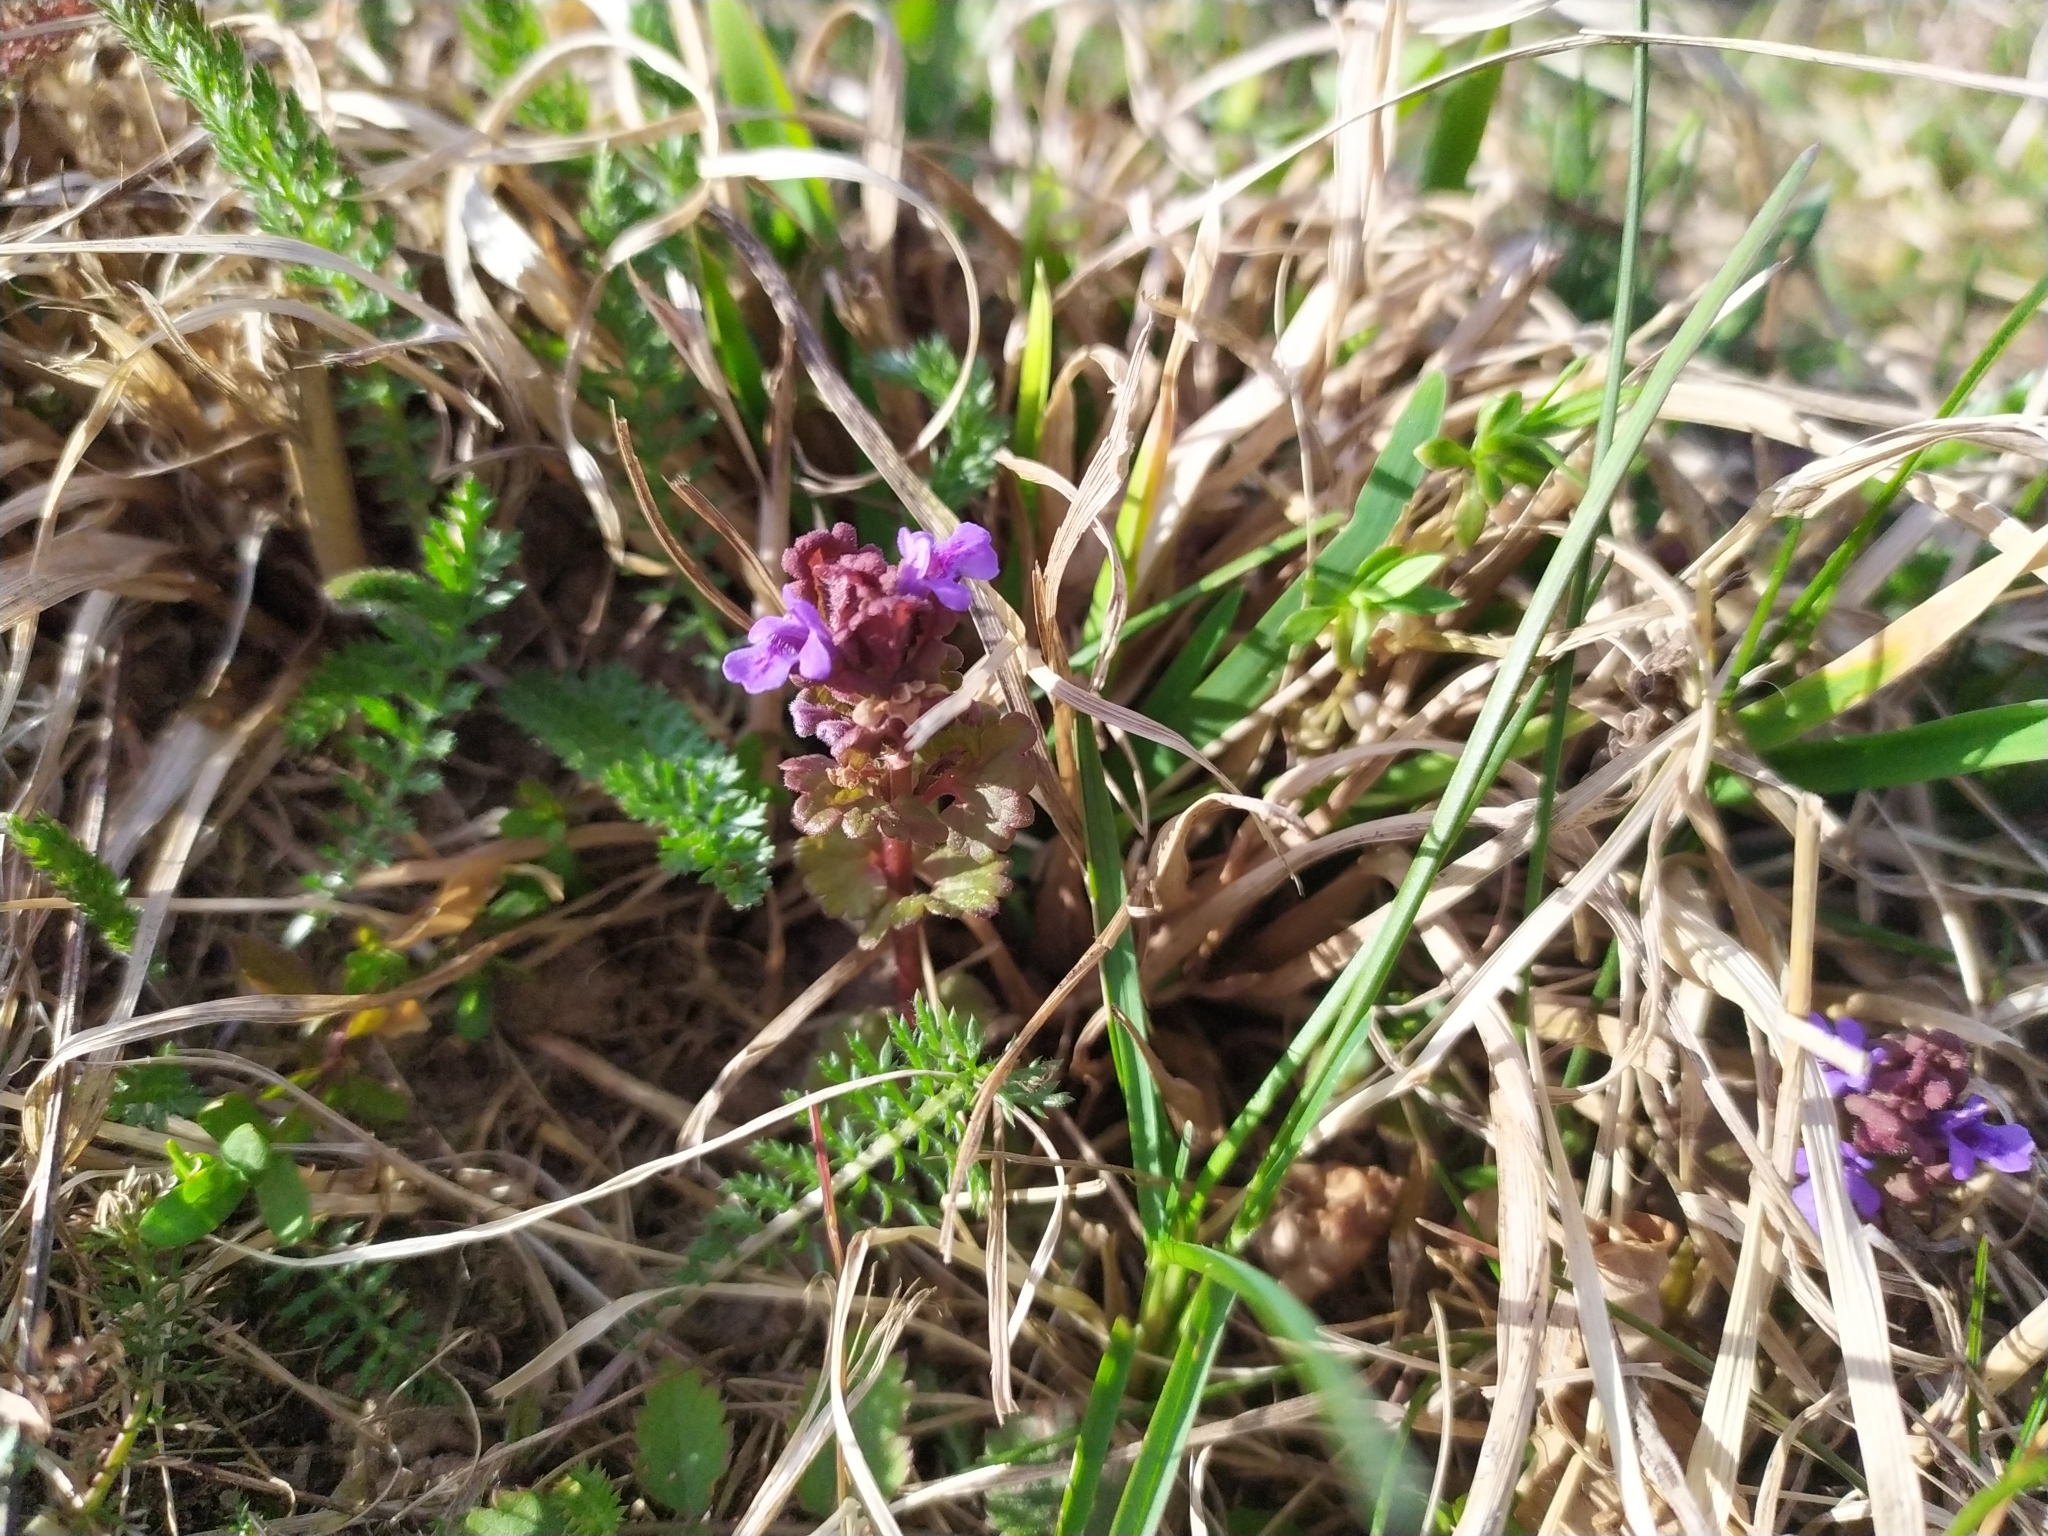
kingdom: Plantae
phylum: Tracheophyta
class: Magnoliopsida
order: Lamiales
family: Lamiaceae
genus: Glechoma
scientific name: Glechoma hederacea
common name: Ground ivy
